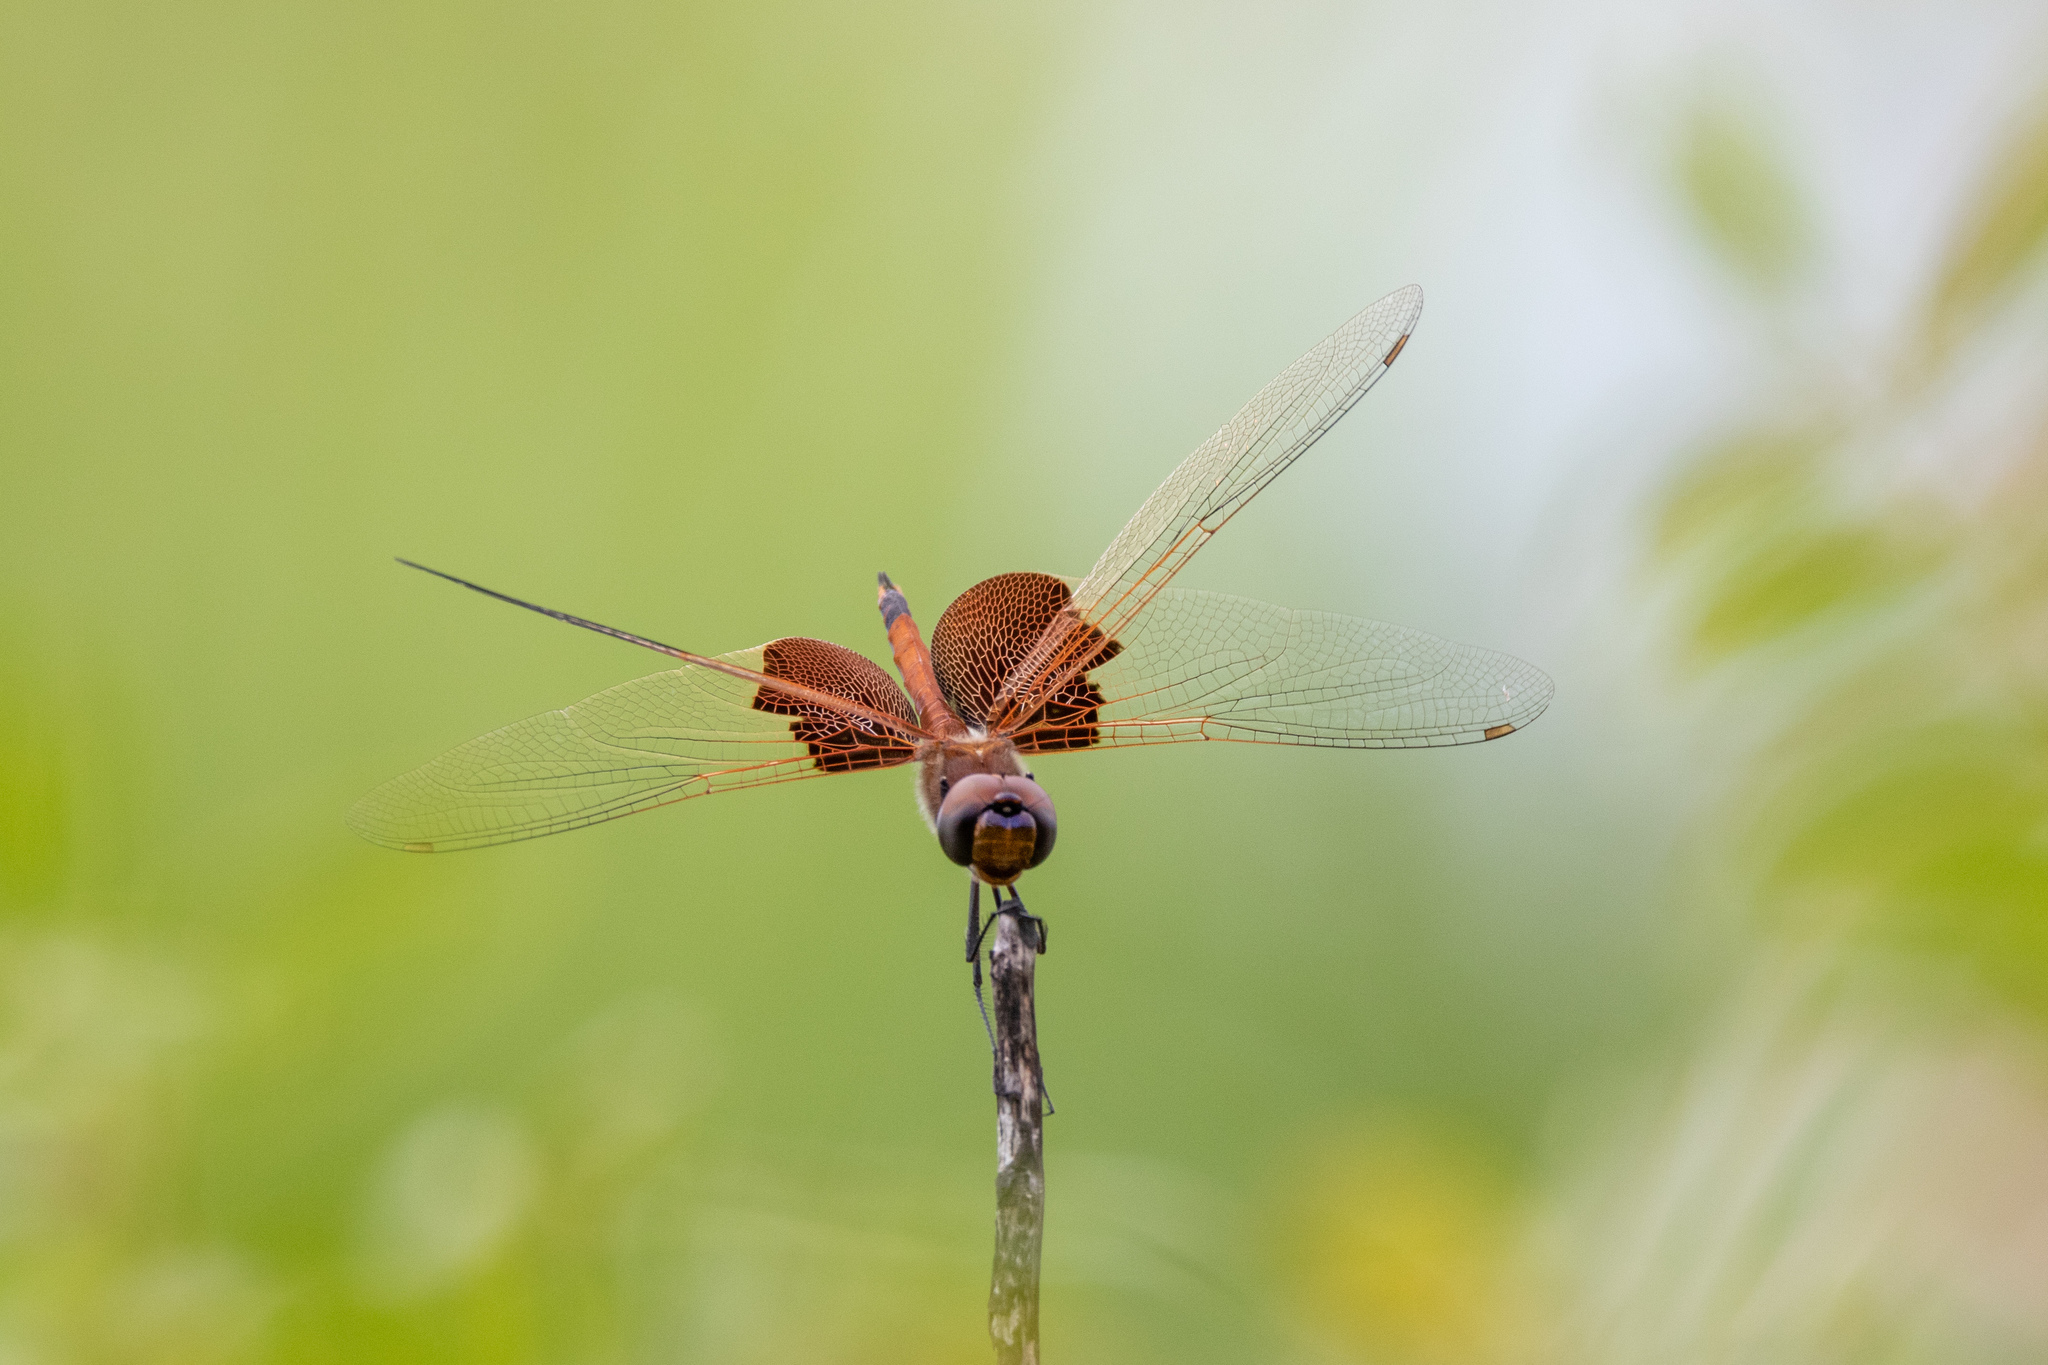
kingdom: Animalia
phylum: Arthropoda
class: Insecta
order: Odonata
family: Libellulidae
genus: Tramea
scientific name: Tramea carolina
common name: Carolina saddlebags
